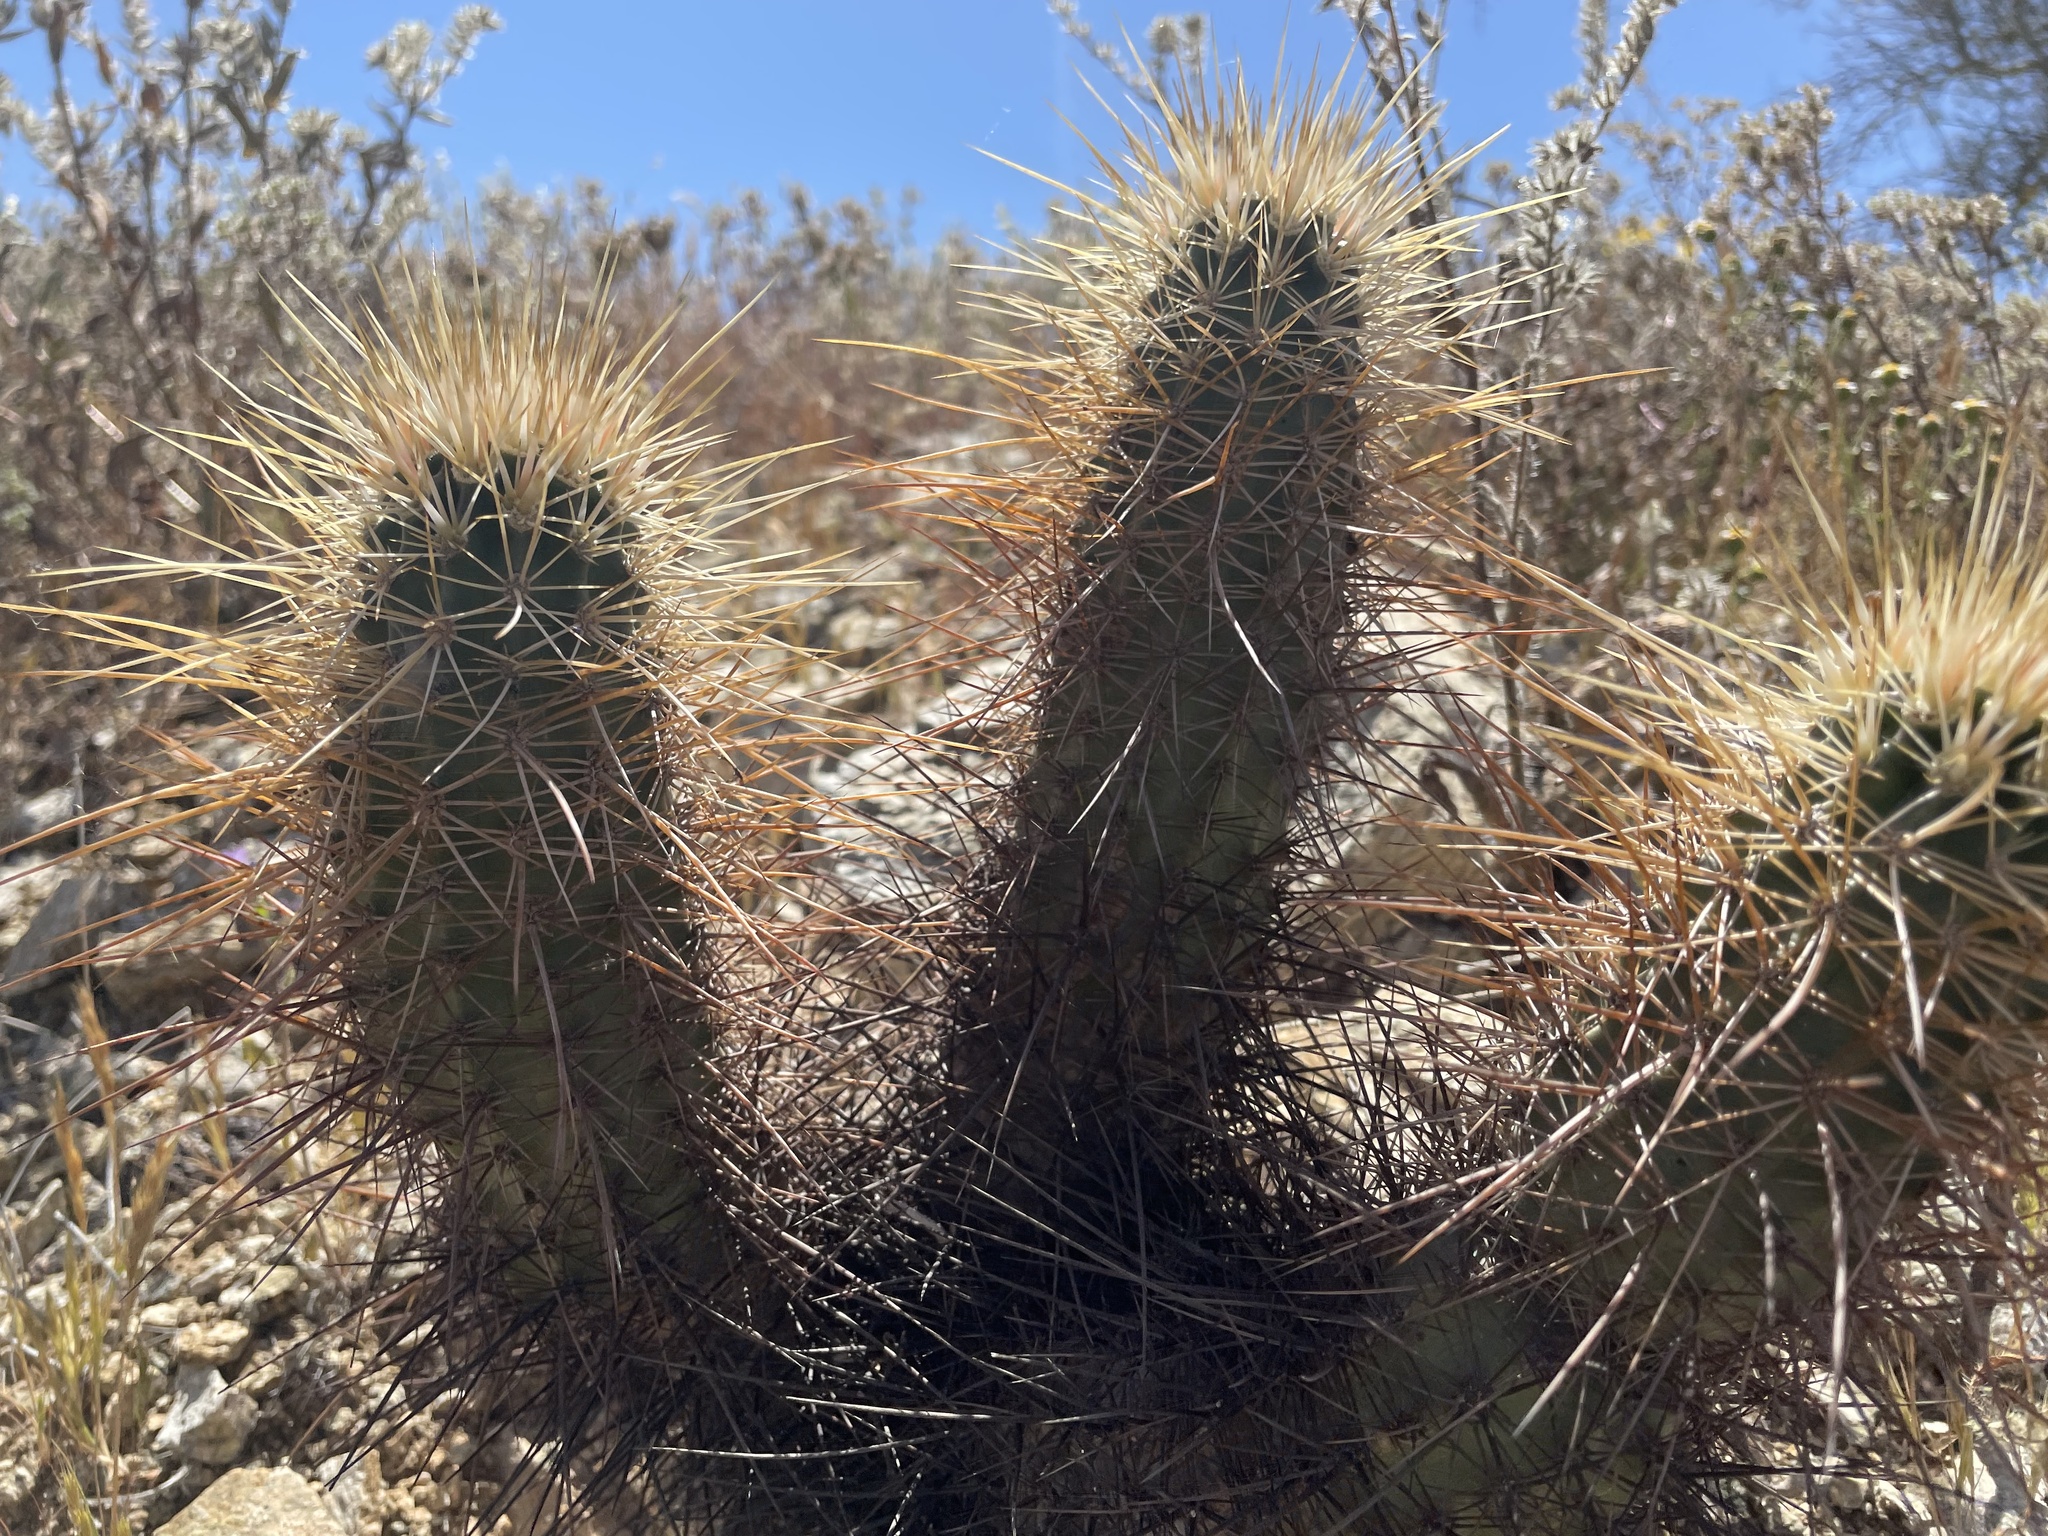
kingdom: Plantae
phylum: Tracheophyta
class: Magnoliopsida
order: Caryophyllales
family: Cactaceae
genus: Echinocereus
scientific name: Echinocereus engelmannii
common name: Engelmann's hedgehog cactus
